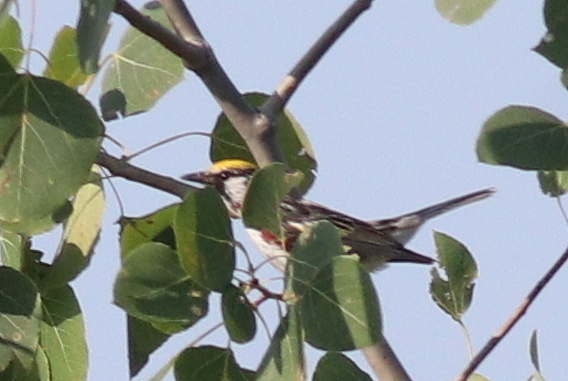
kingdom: Animalia
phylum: Chordata
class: Aves
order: Passeriformes
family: Parulidae
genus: Setophaga
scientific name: Setophaga pensylvanica
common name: Chestnut-sided warbler
